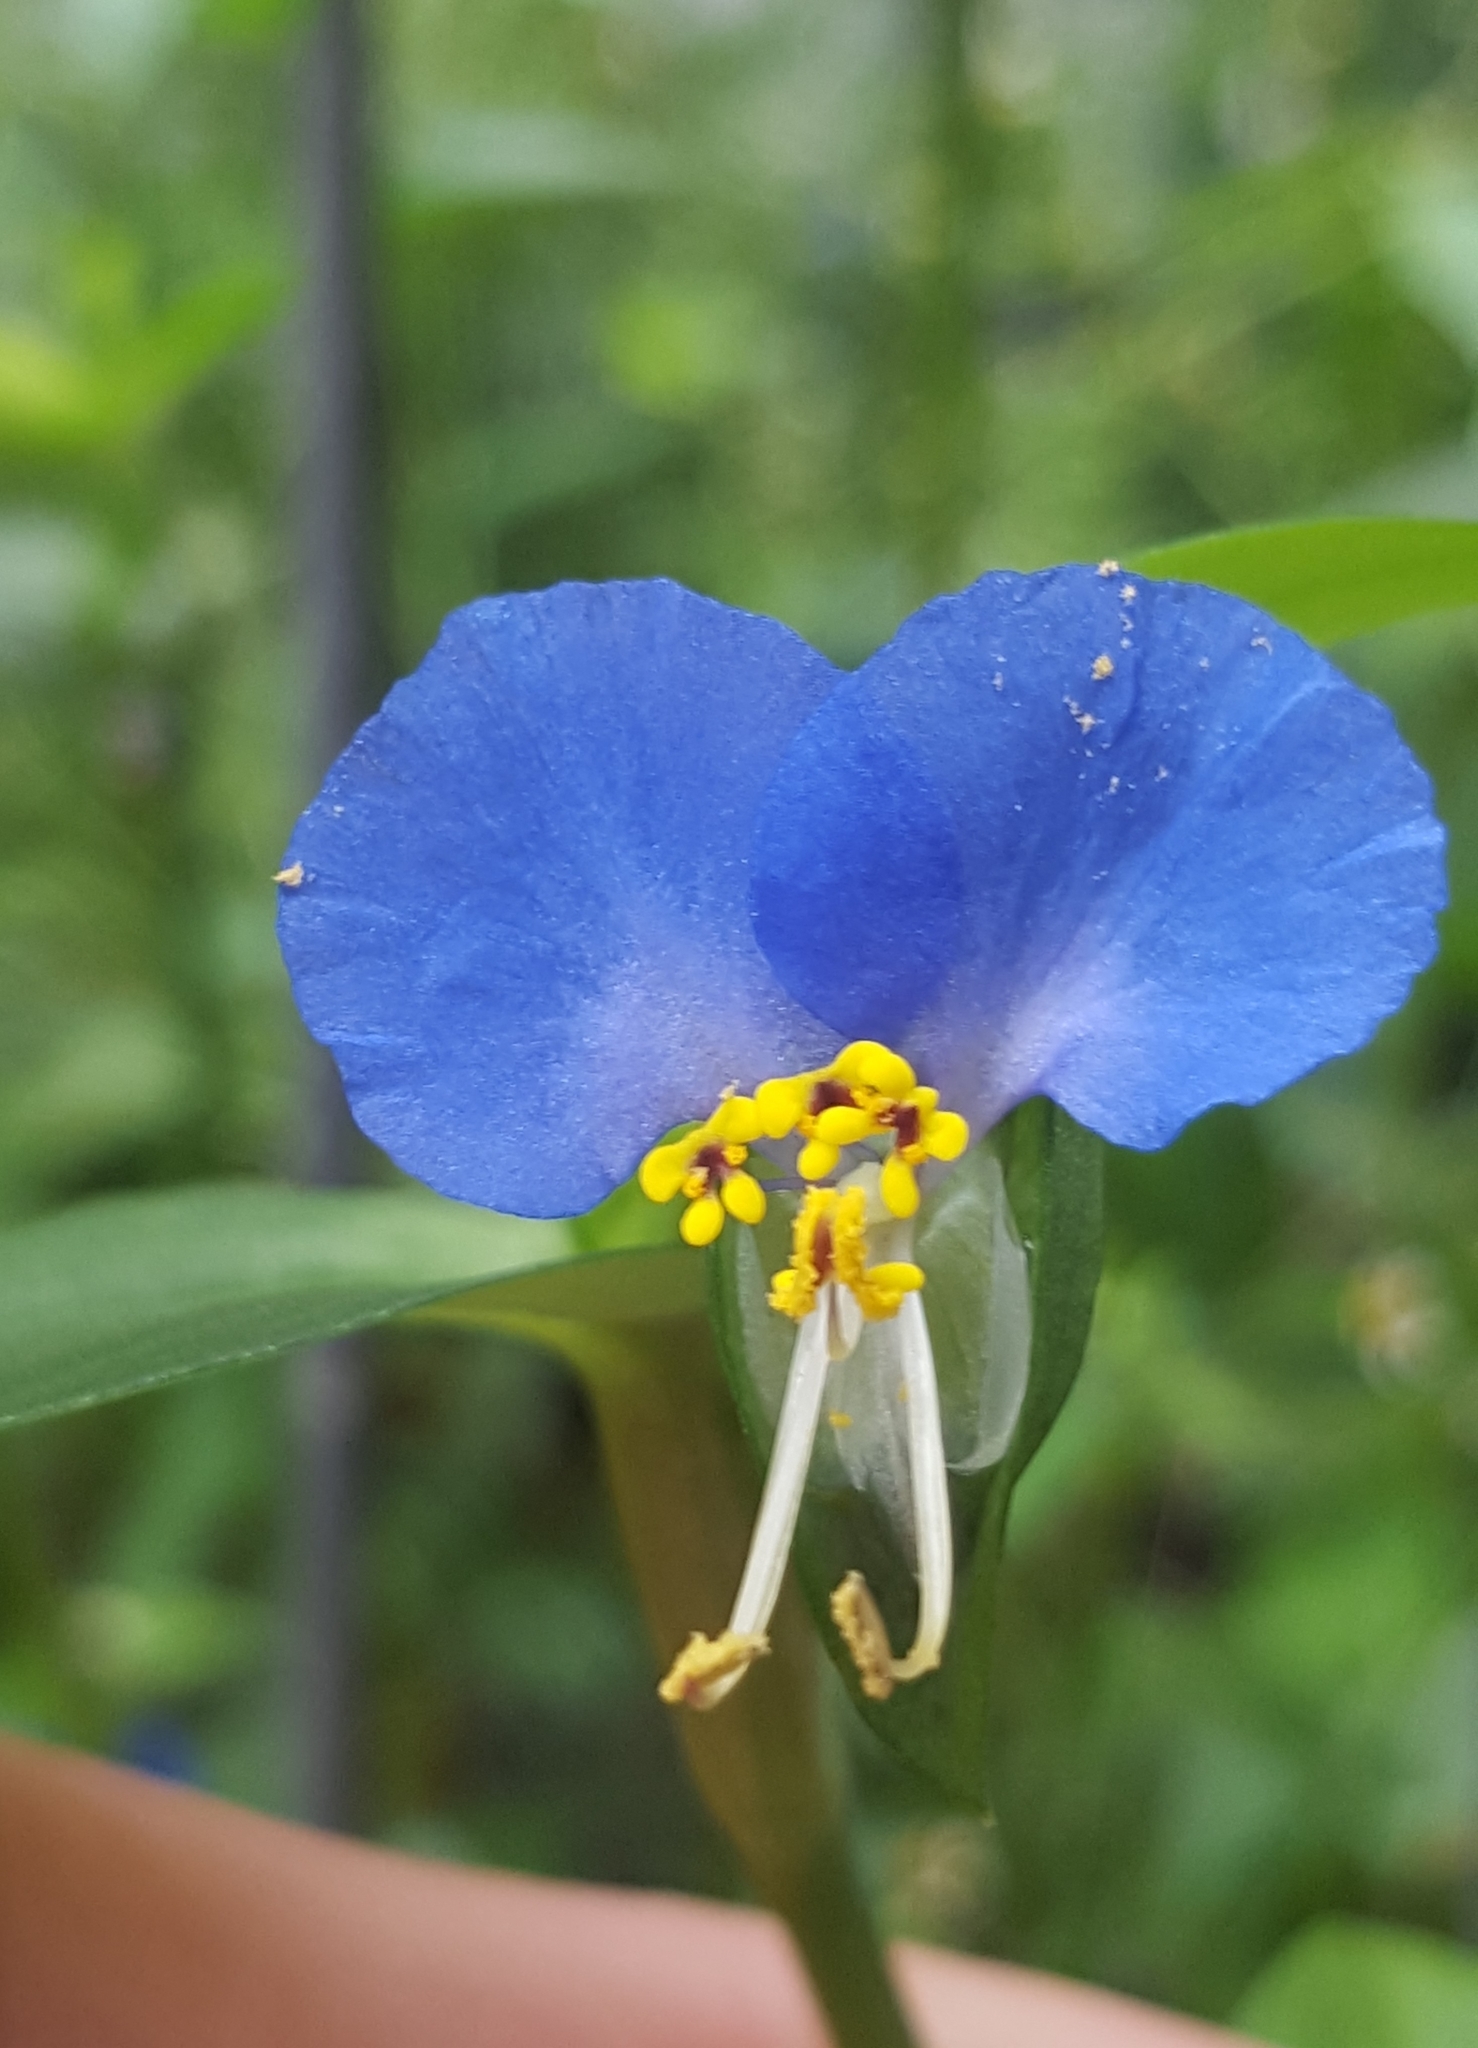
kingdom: Plantae
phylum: Tracheophyta
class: Liliopsida
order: Commelinales
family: Commelinaceae
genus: Commelina
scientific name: Commelina communis
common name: Asiatic dayflower
